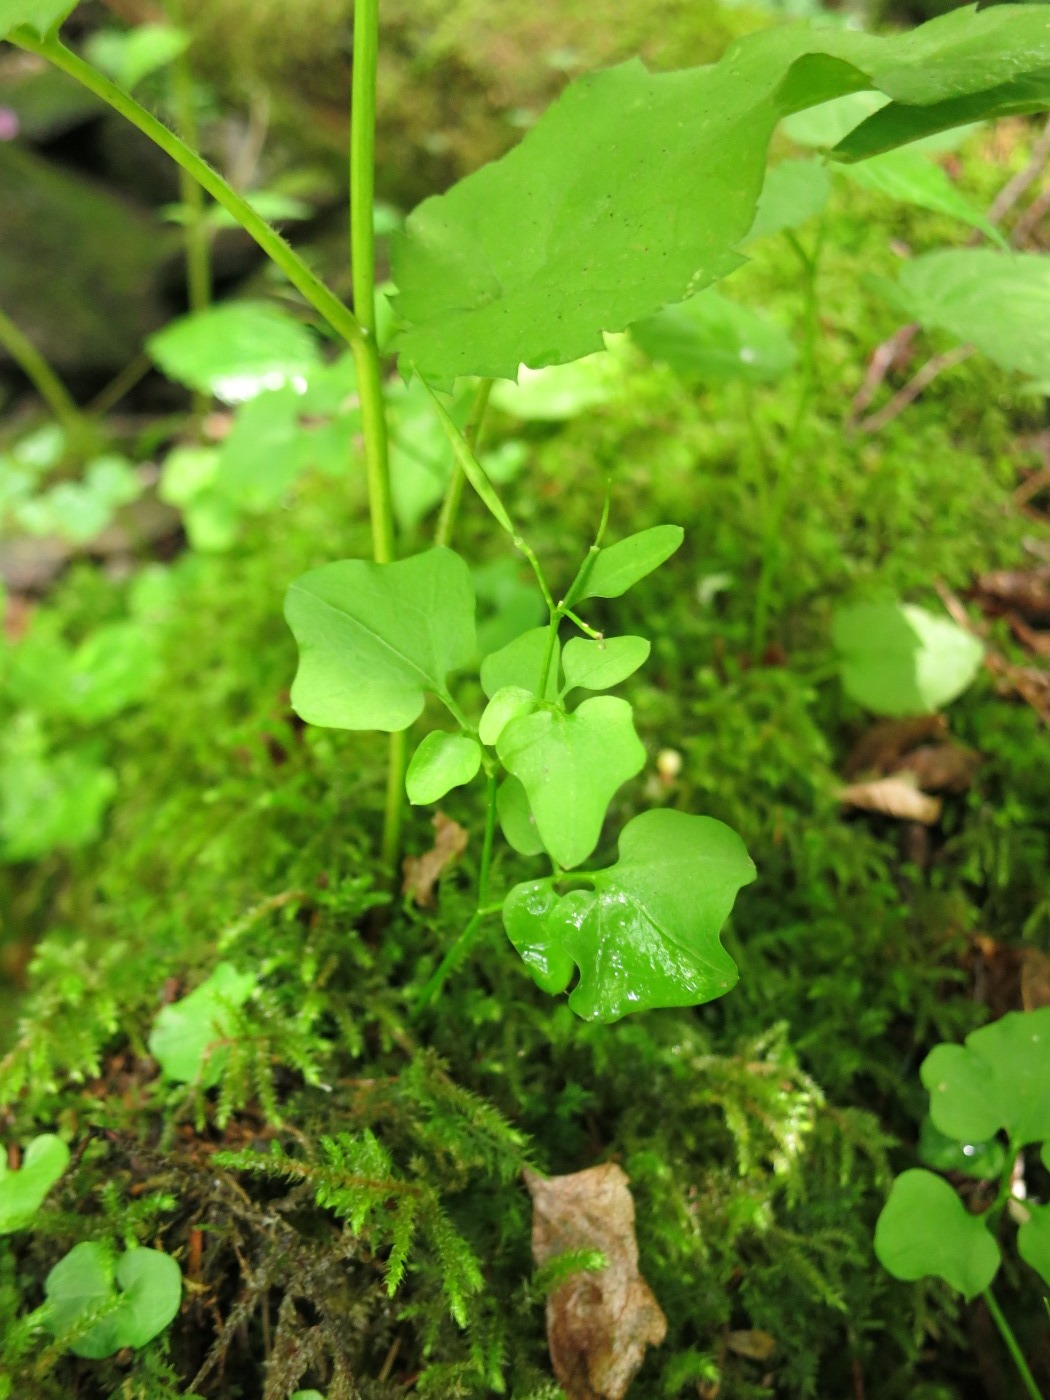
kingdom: Plantae
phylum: Tracheophyta
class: Magnoliopsida
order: Brassicales
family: Brassicaceae
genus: Cardamine
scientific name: Cardamine clematitis
